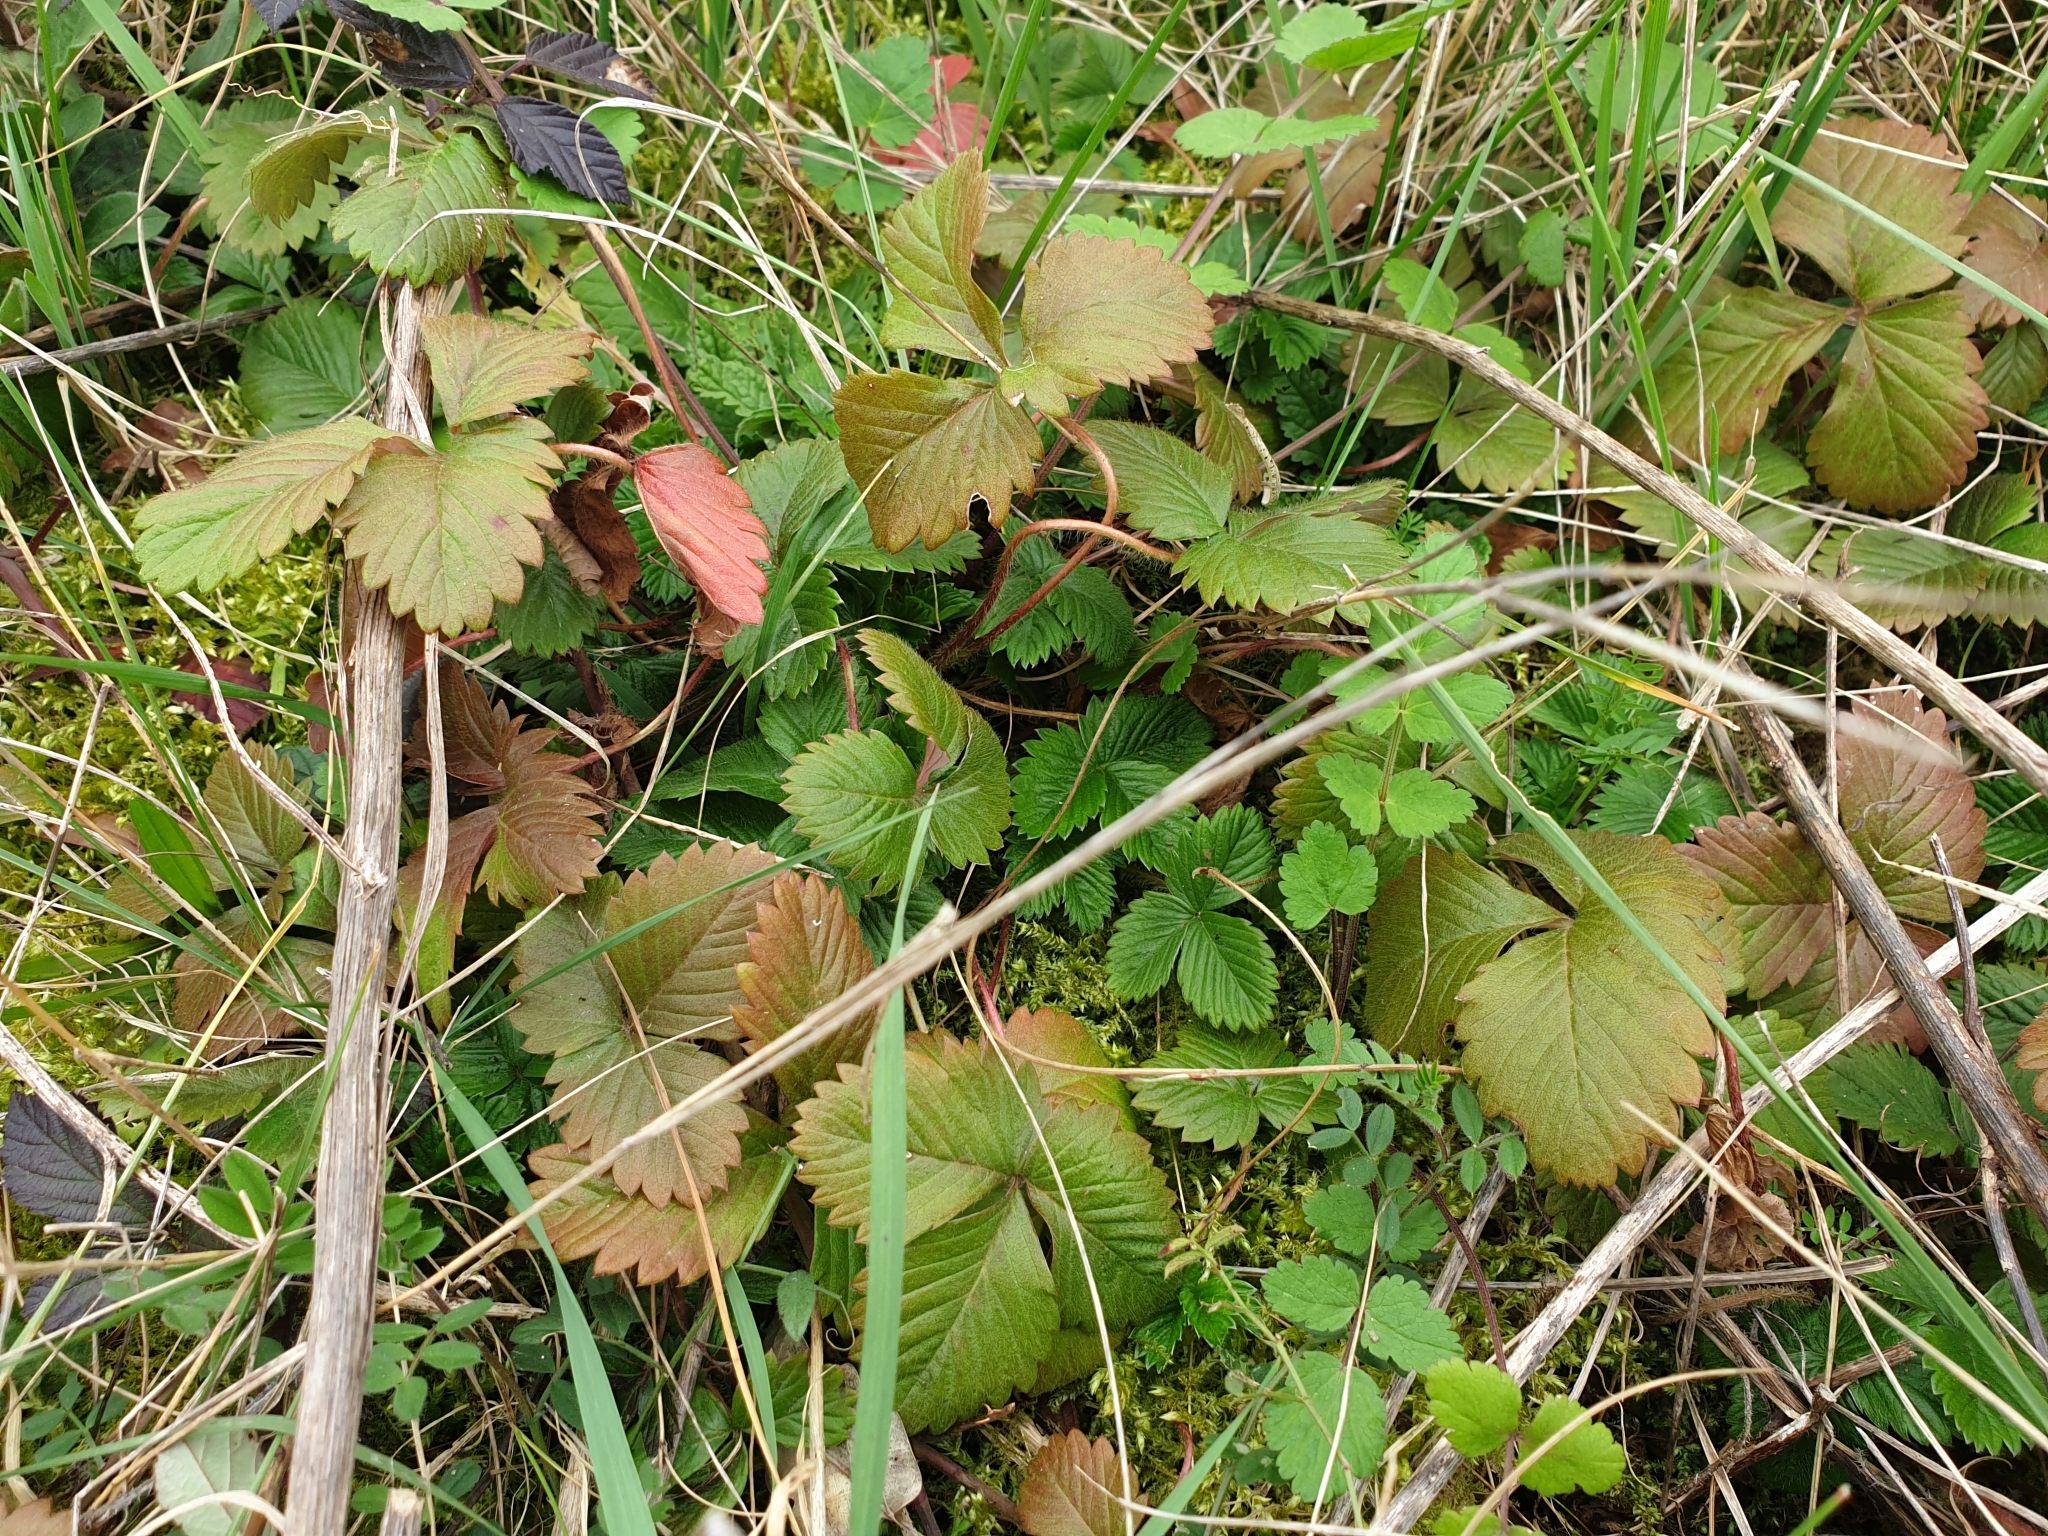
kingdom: Plantae
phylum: Tracheophyta
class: Magnoliopsida
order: Rosales
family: Rosaceae
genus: Fragaria
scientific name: Fragaria vesca
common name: Wild strawberry
